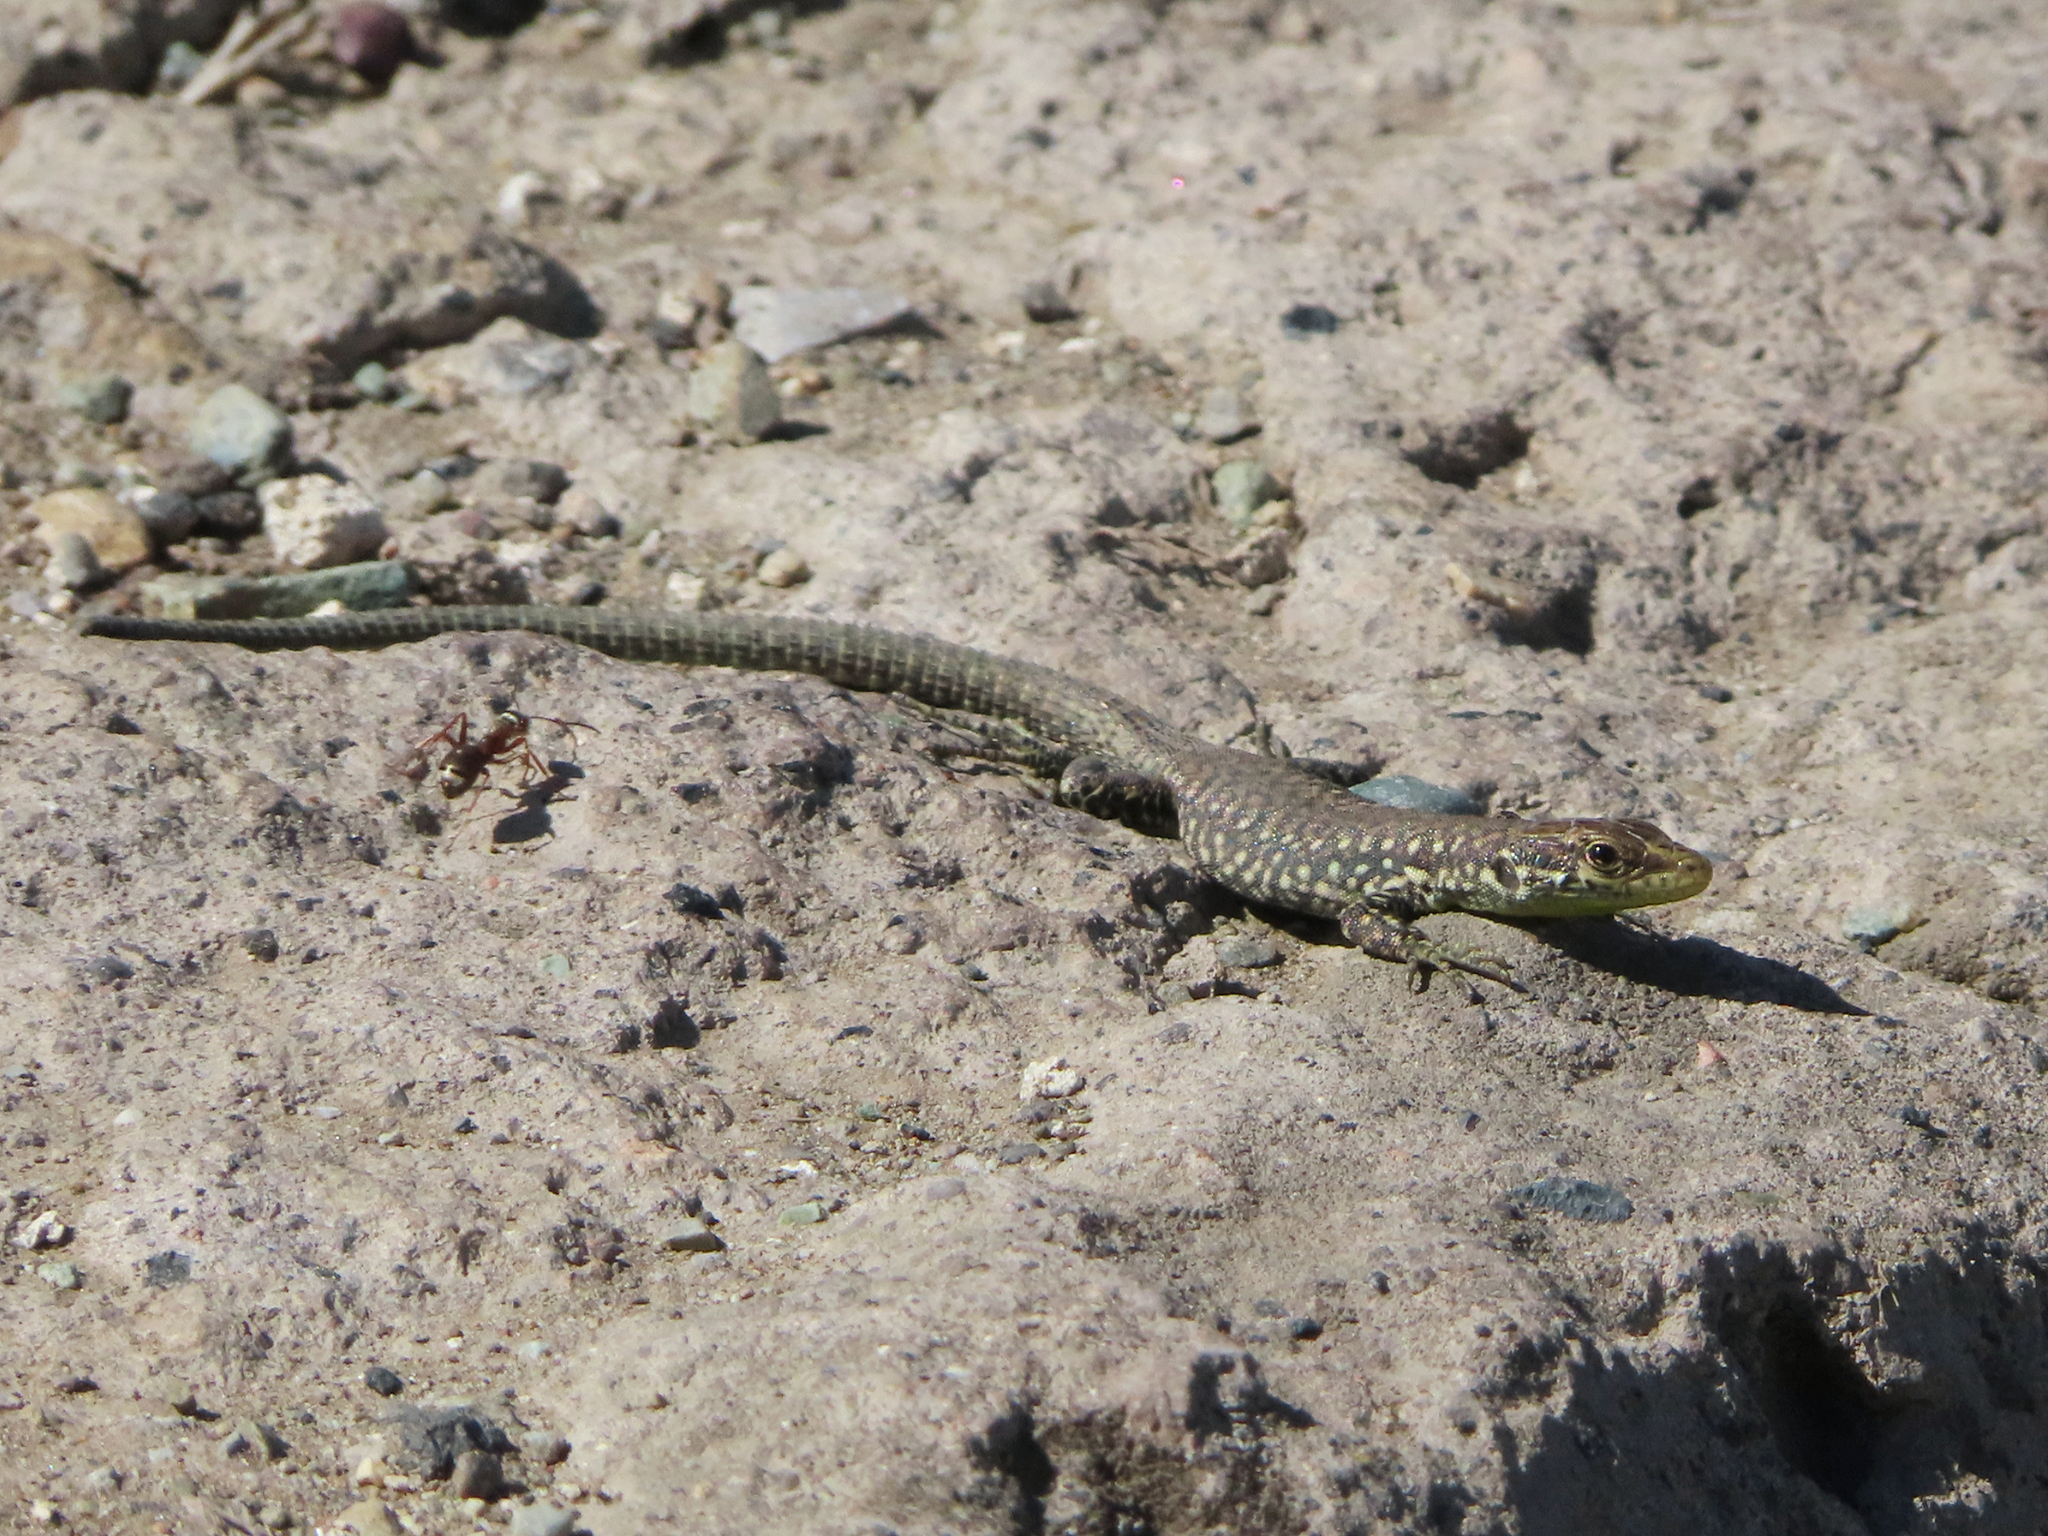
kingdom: Animalia
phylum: Chordata
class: Squamata
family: Lacertidae
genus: Darevskia
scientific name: Darevskia
